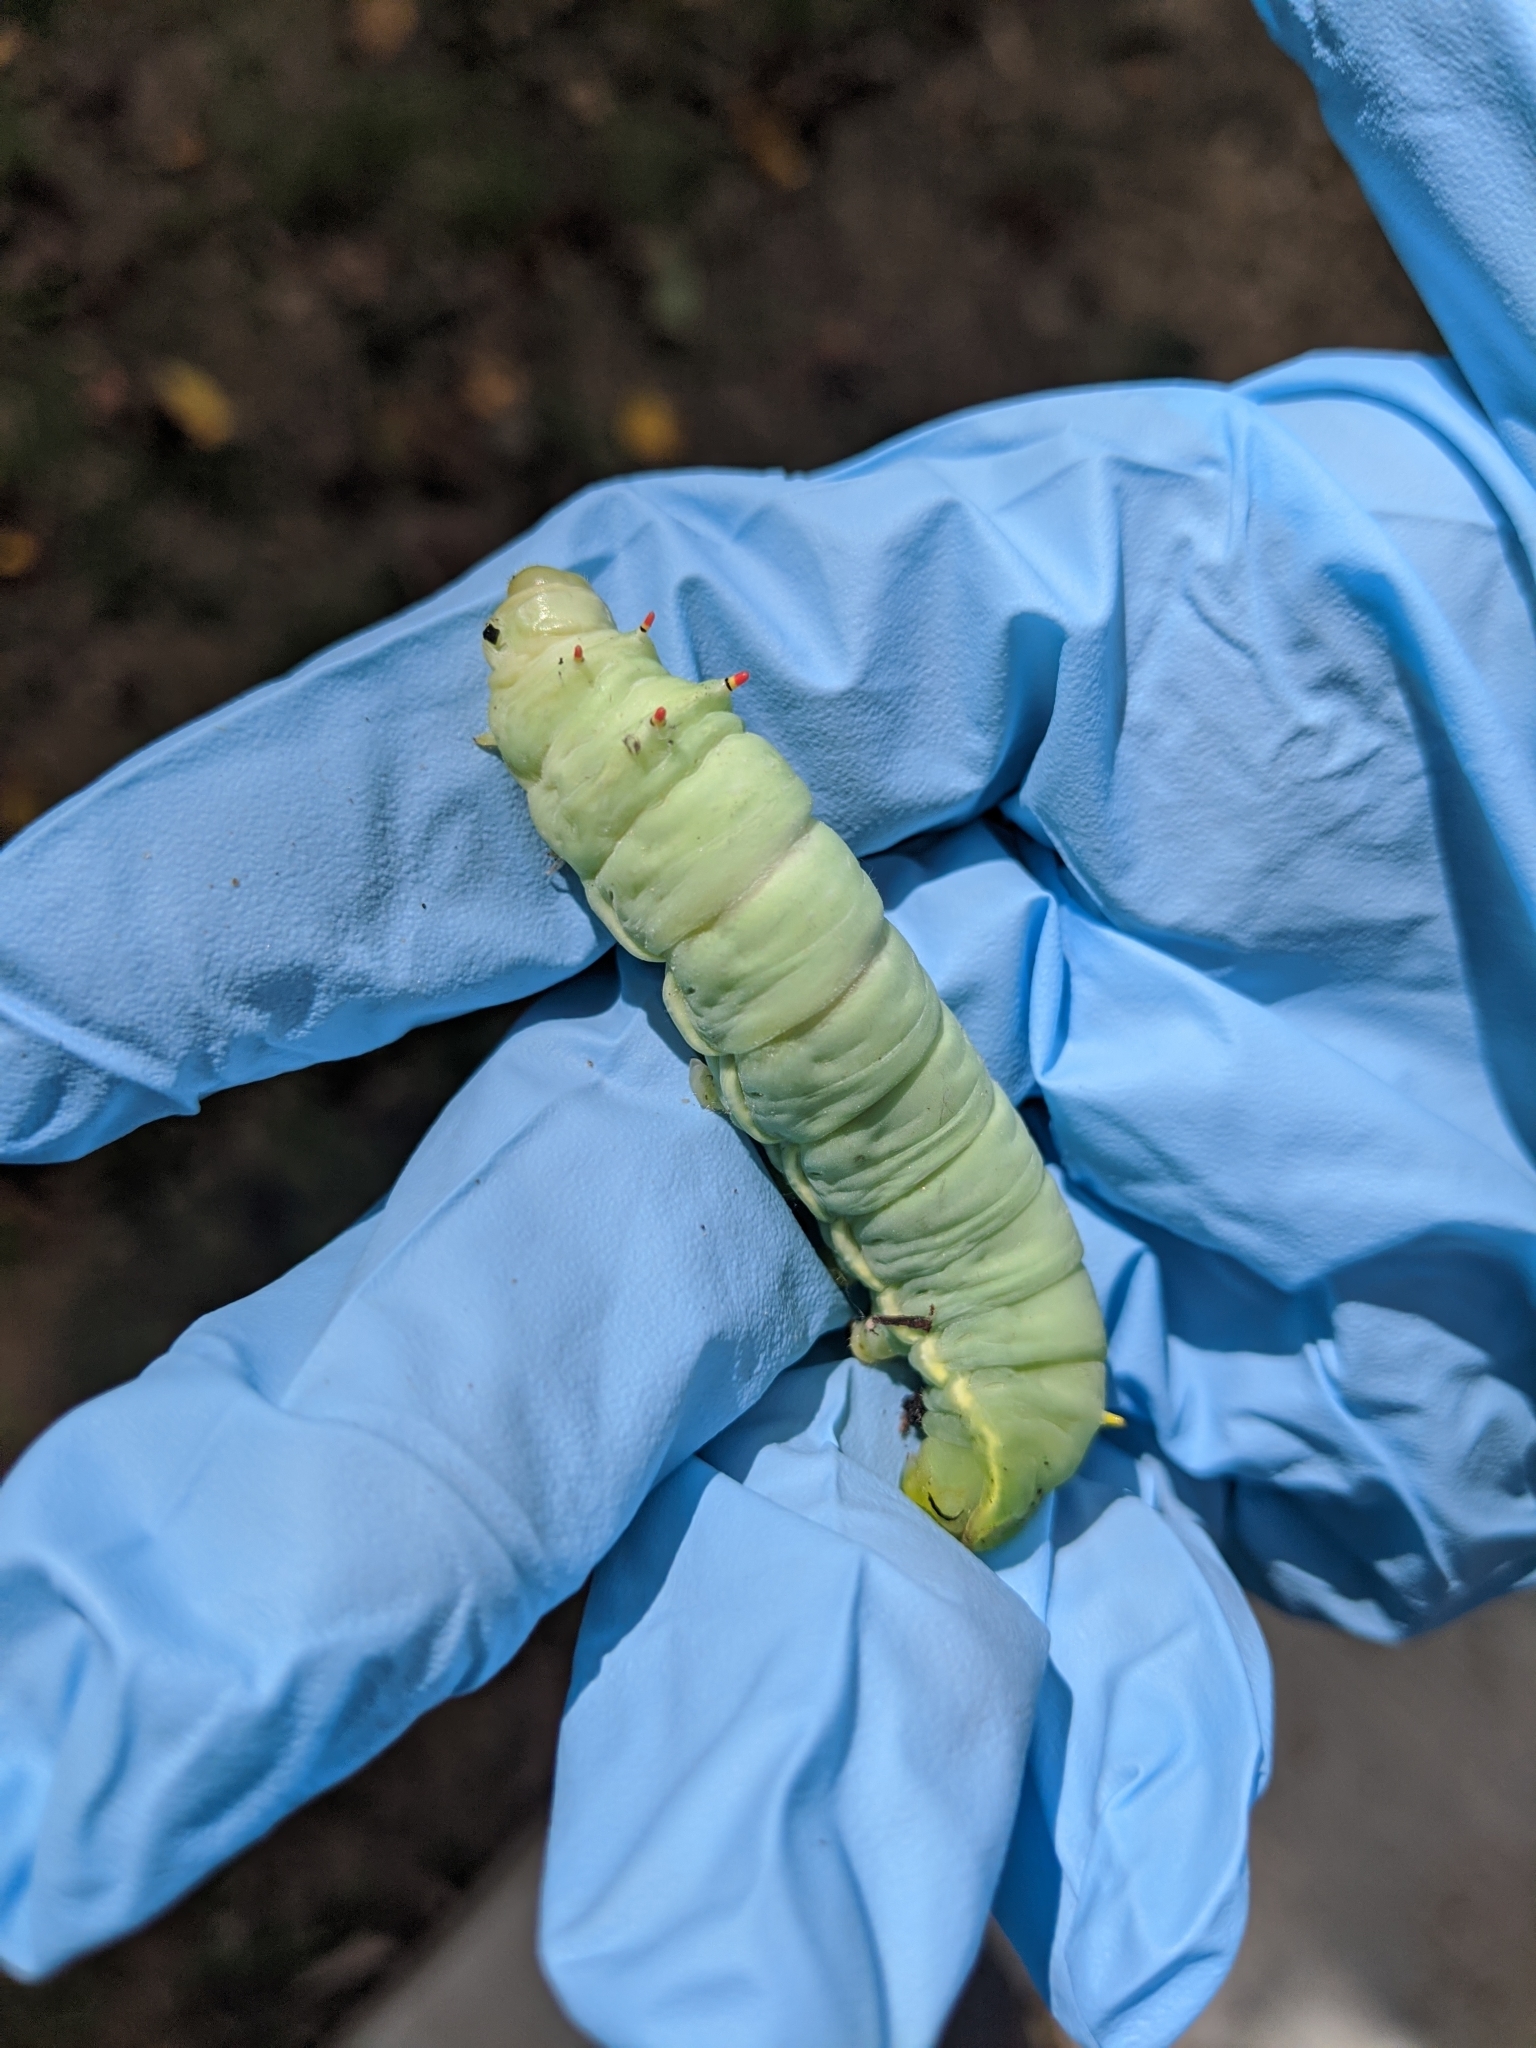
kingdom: Animalia
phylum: Arthropoda
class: Insecta
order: Lepidoptera
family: Saturniidae
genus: Callosamia
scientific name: Callosamia angulifera
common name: Tulip tree silkmoth
